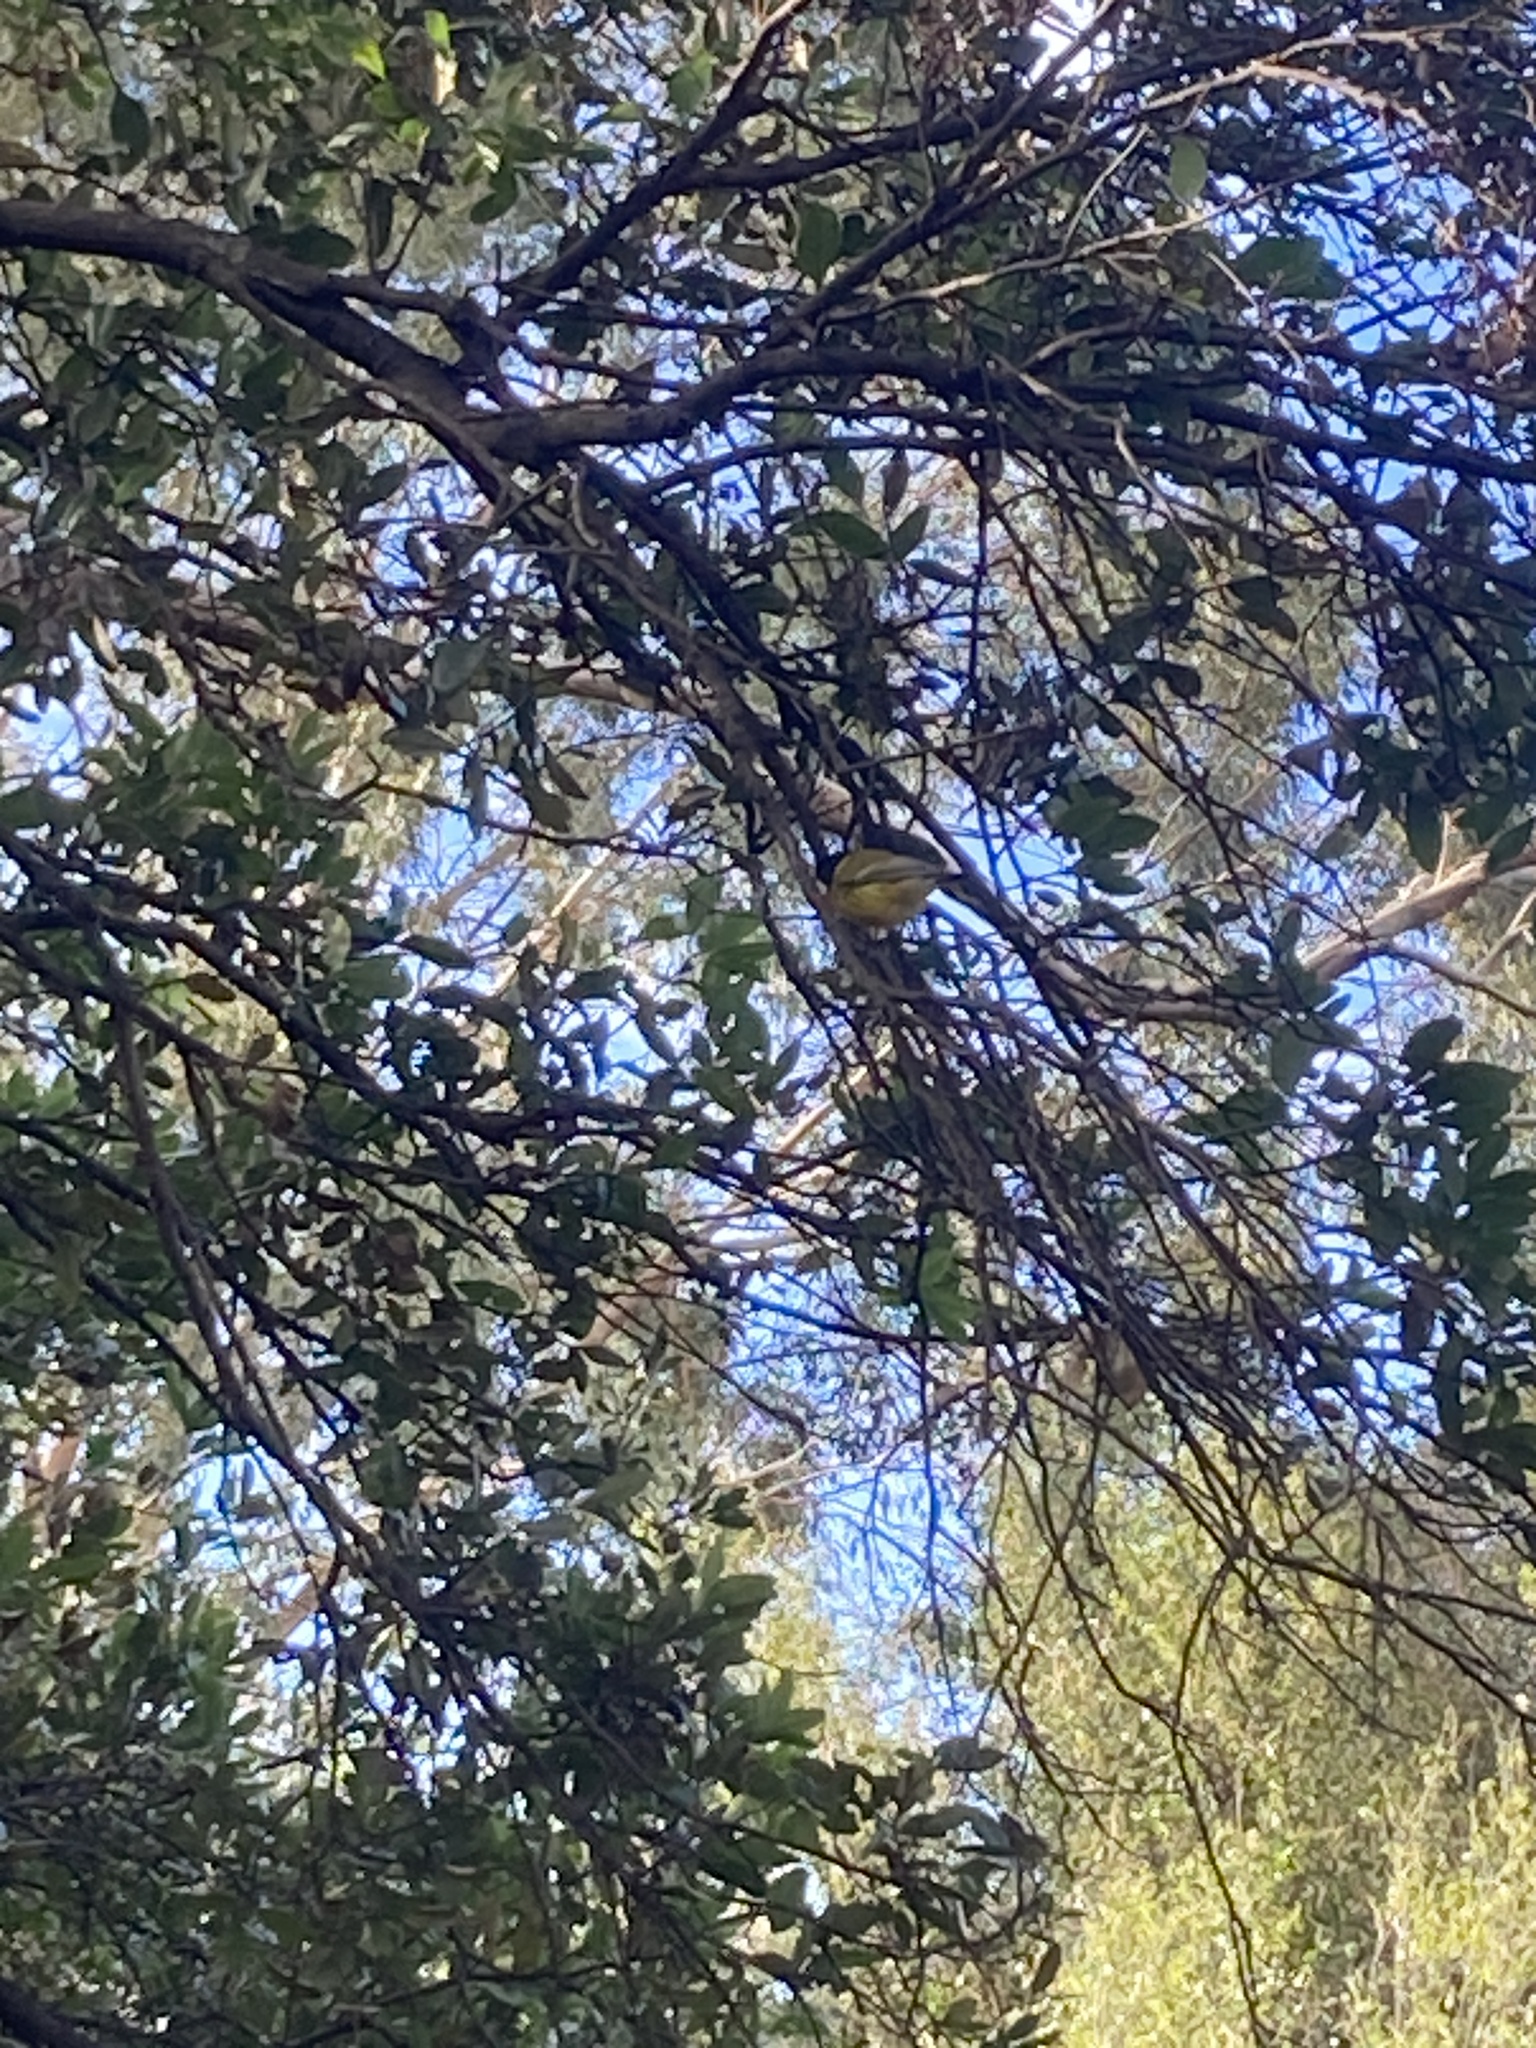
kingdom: Animalia
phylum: Chordata
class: Aves
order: Passeriformes
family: Pachycephalidae
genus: Pachycephala
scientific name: Pachycephala pectoralis
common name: Australian golden whistler
